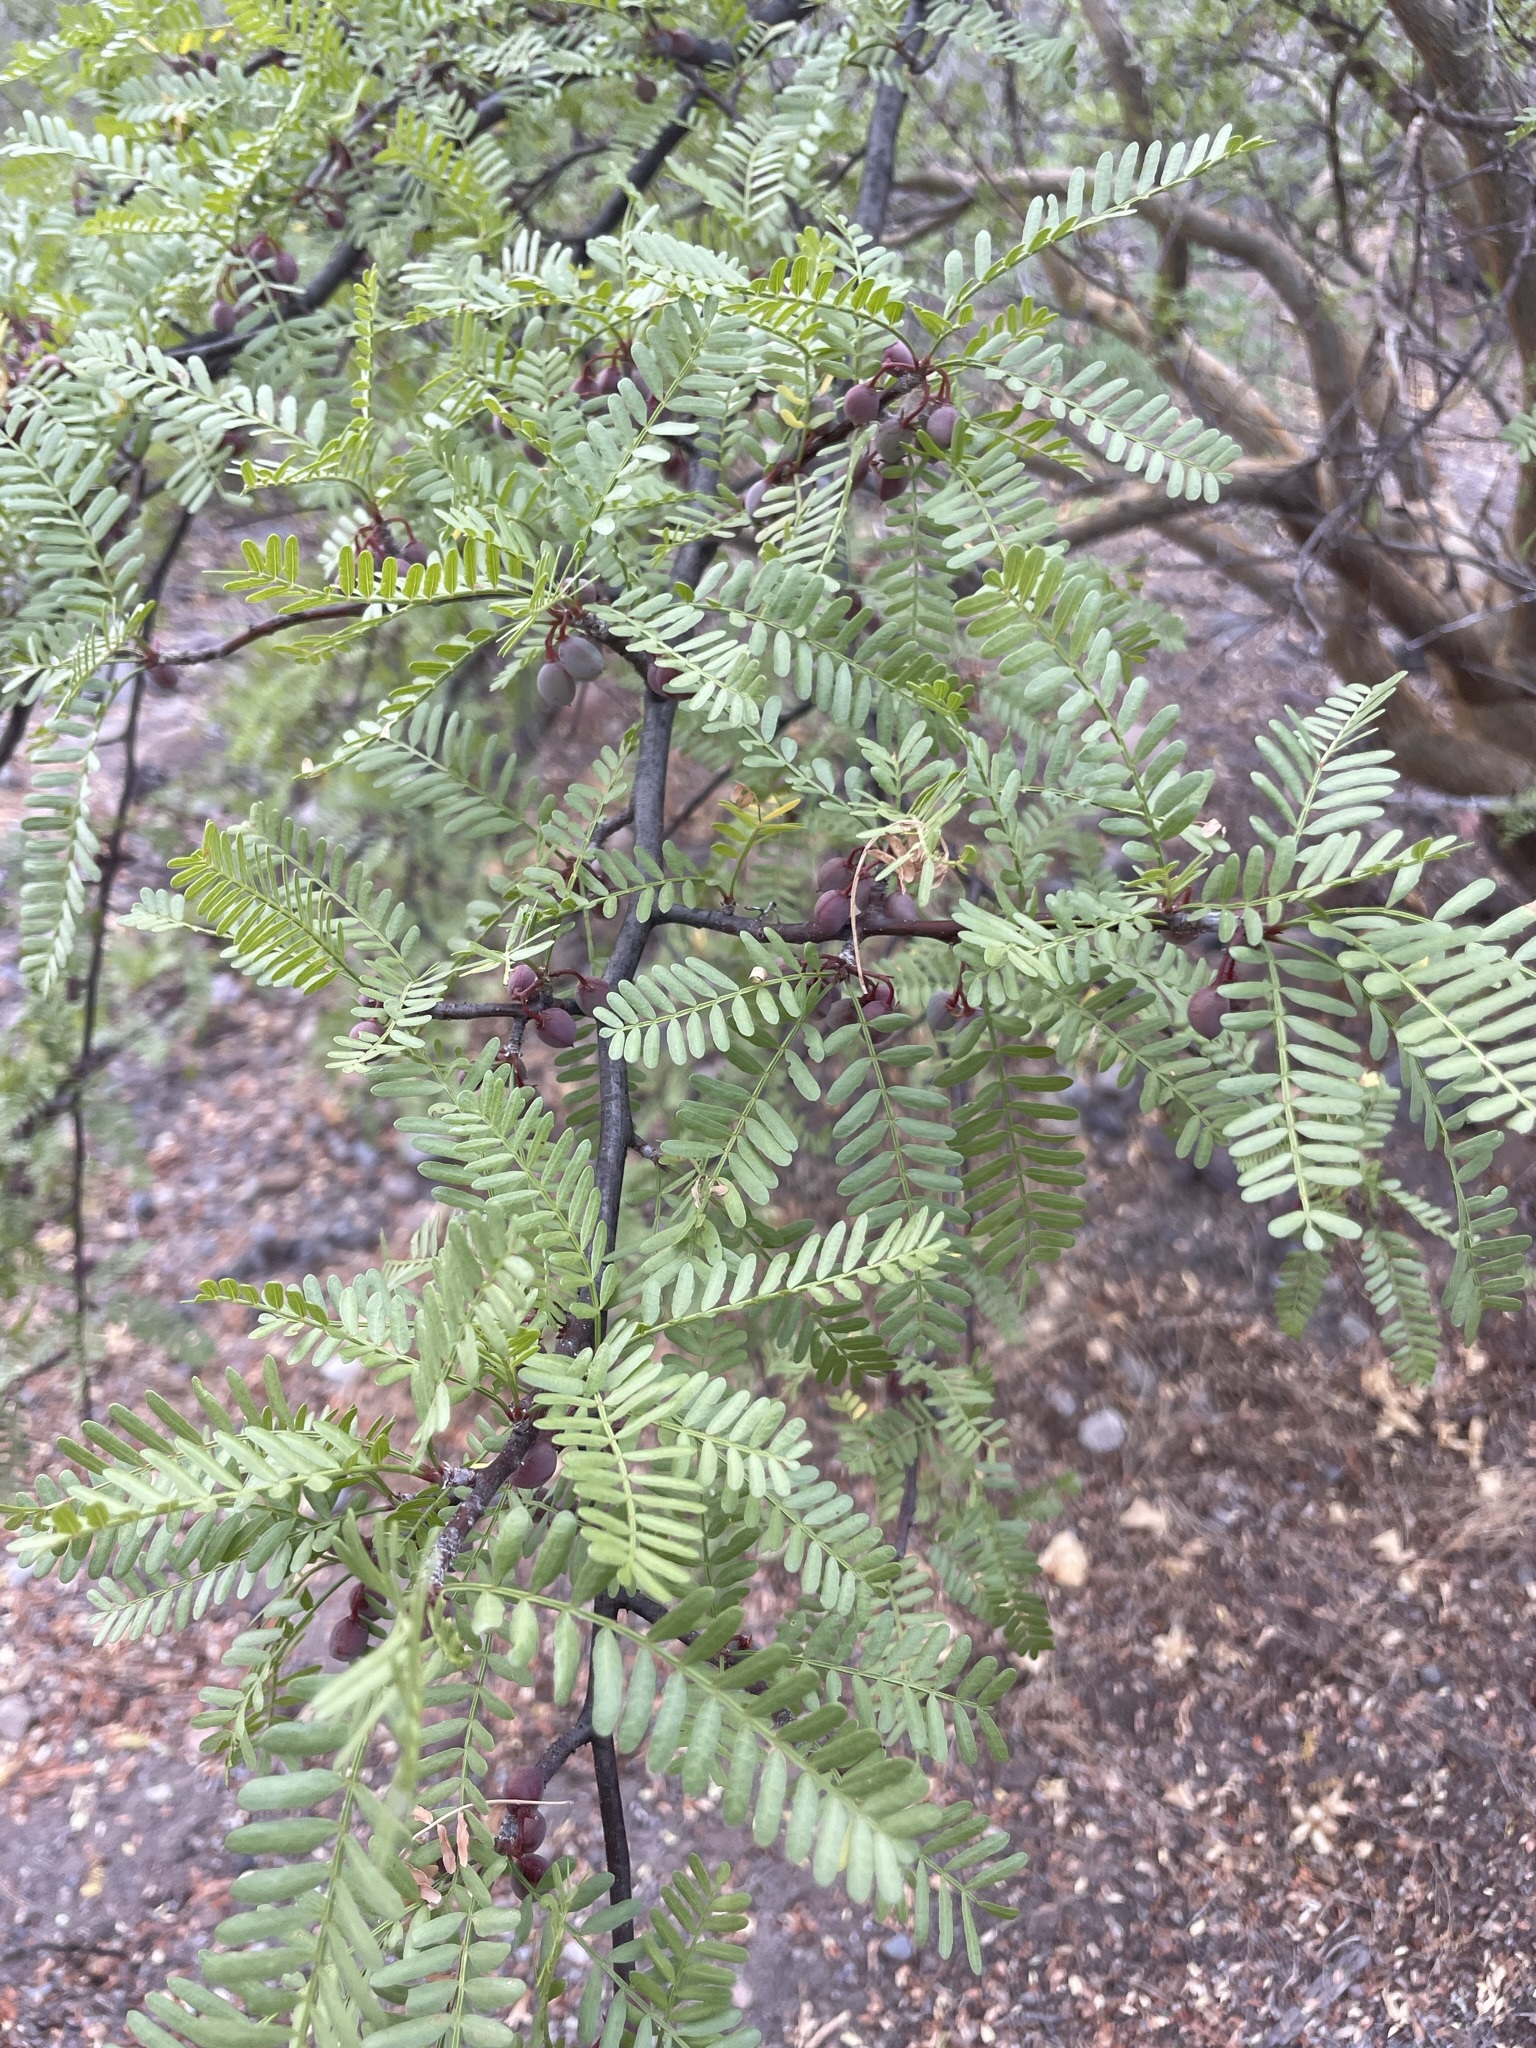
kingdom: Plantae
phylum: Tracheophyta
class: Magnoliopsida
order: Sapindales
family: Burseraceae
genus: Bursera
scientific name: Bursera microphylla
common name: Elephant tree
